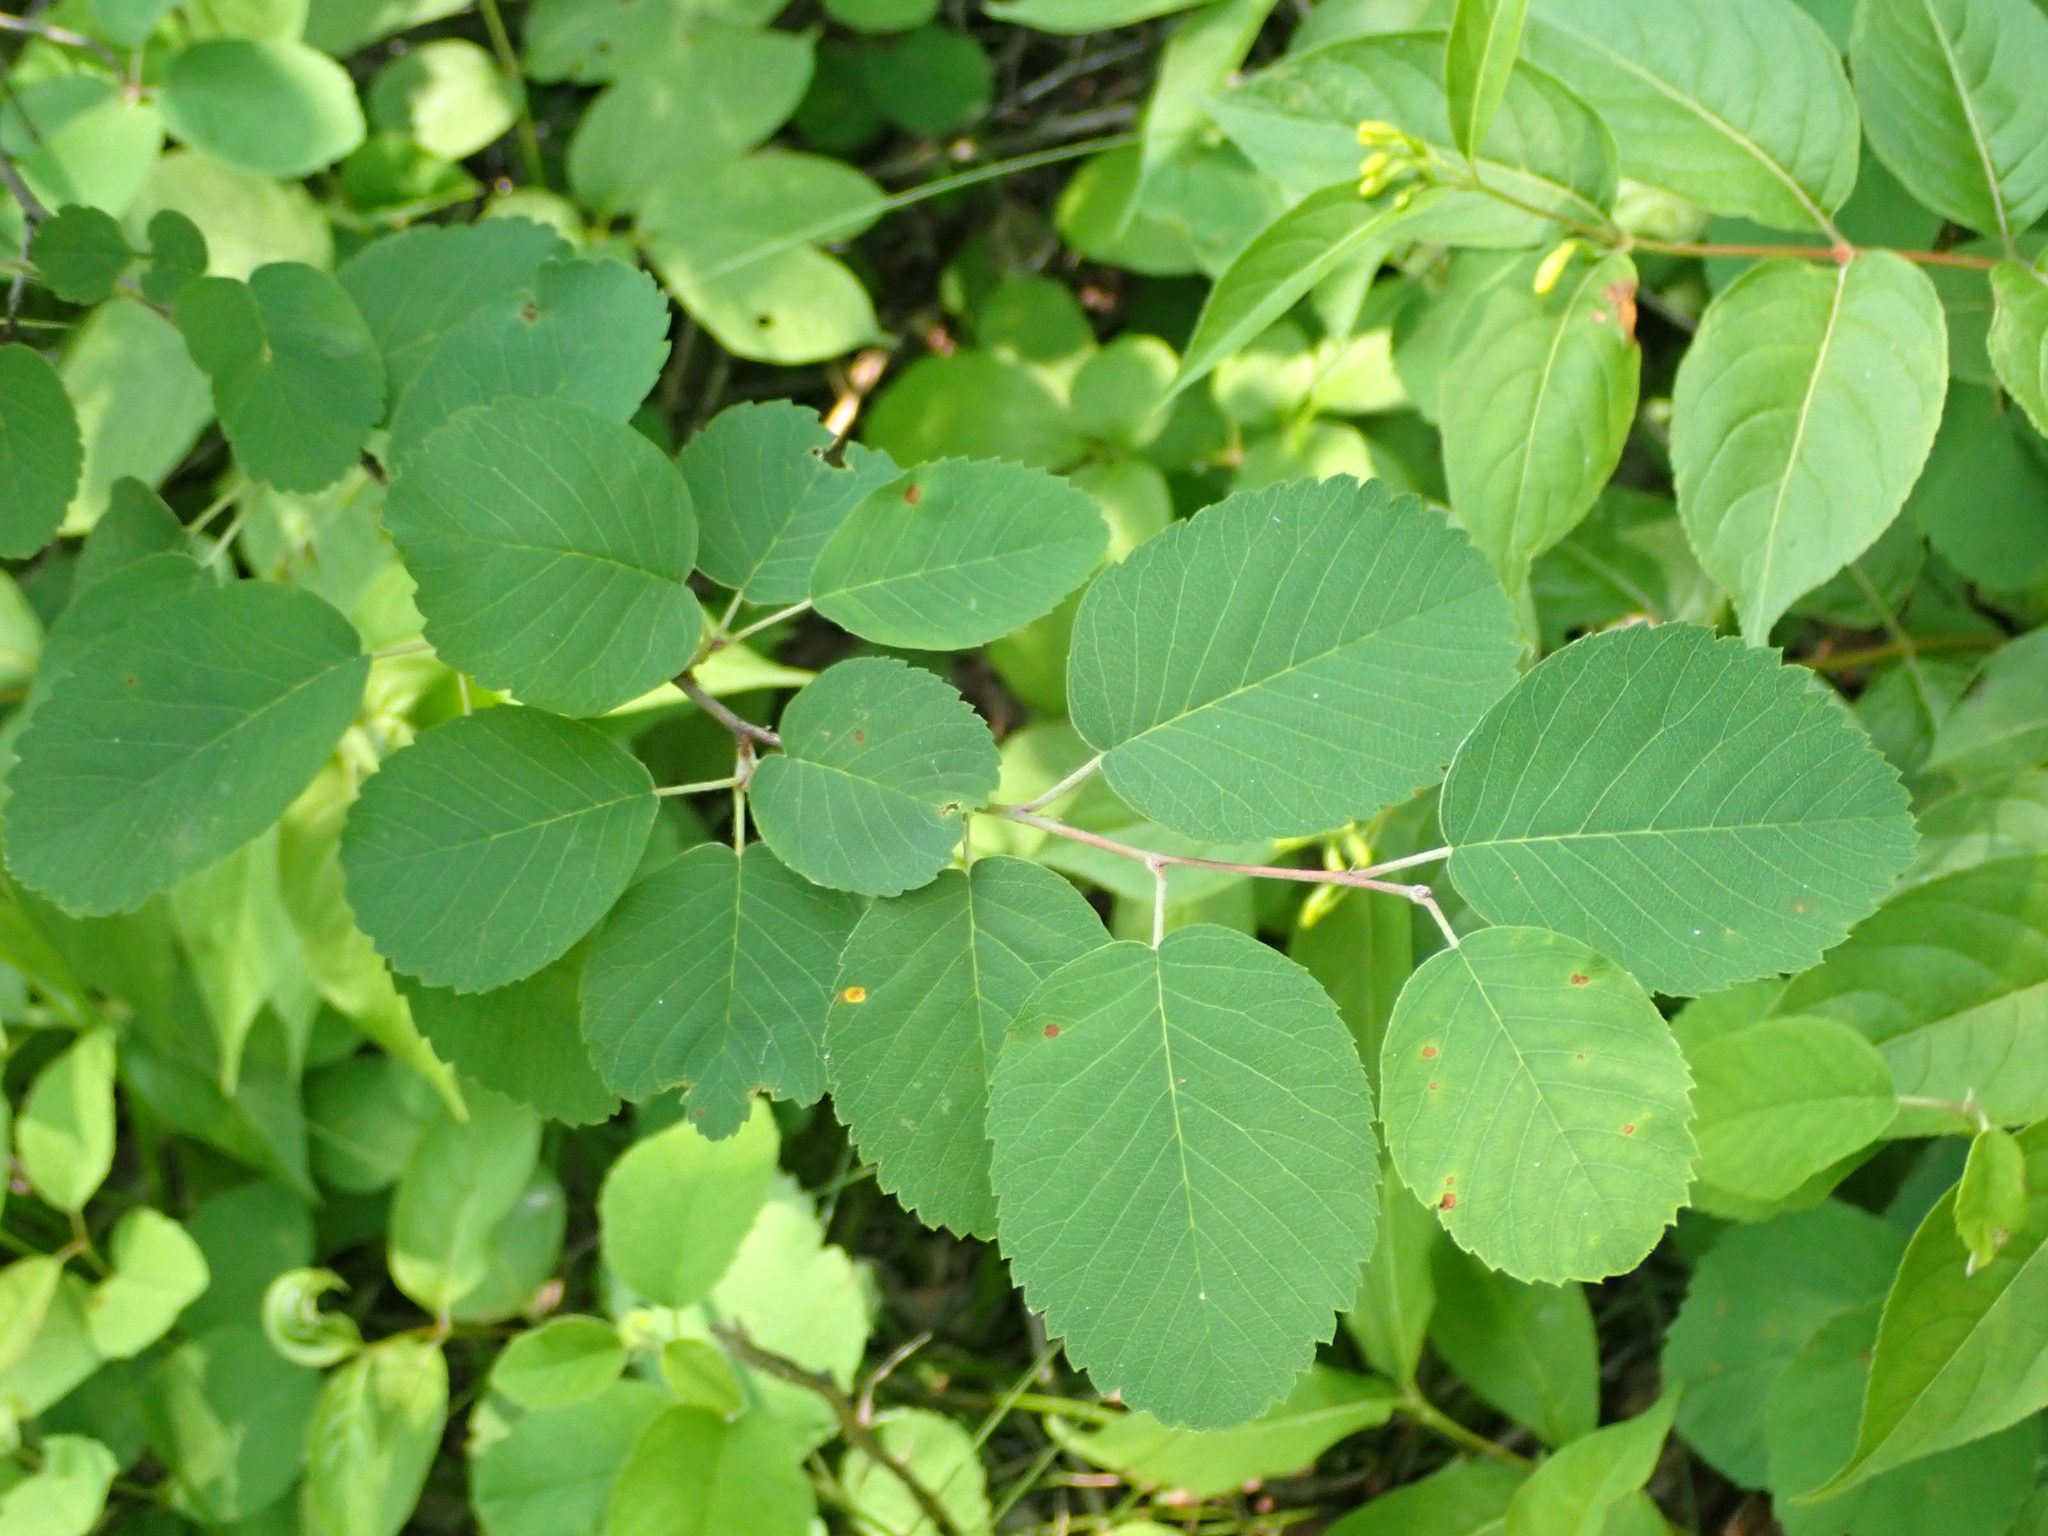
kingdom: Plantae
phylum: Tracheophyta
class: Magnoliopsida
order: Rosales
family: Rosaceae
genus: Amelanchier
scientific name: Amelanchier alnifolia
